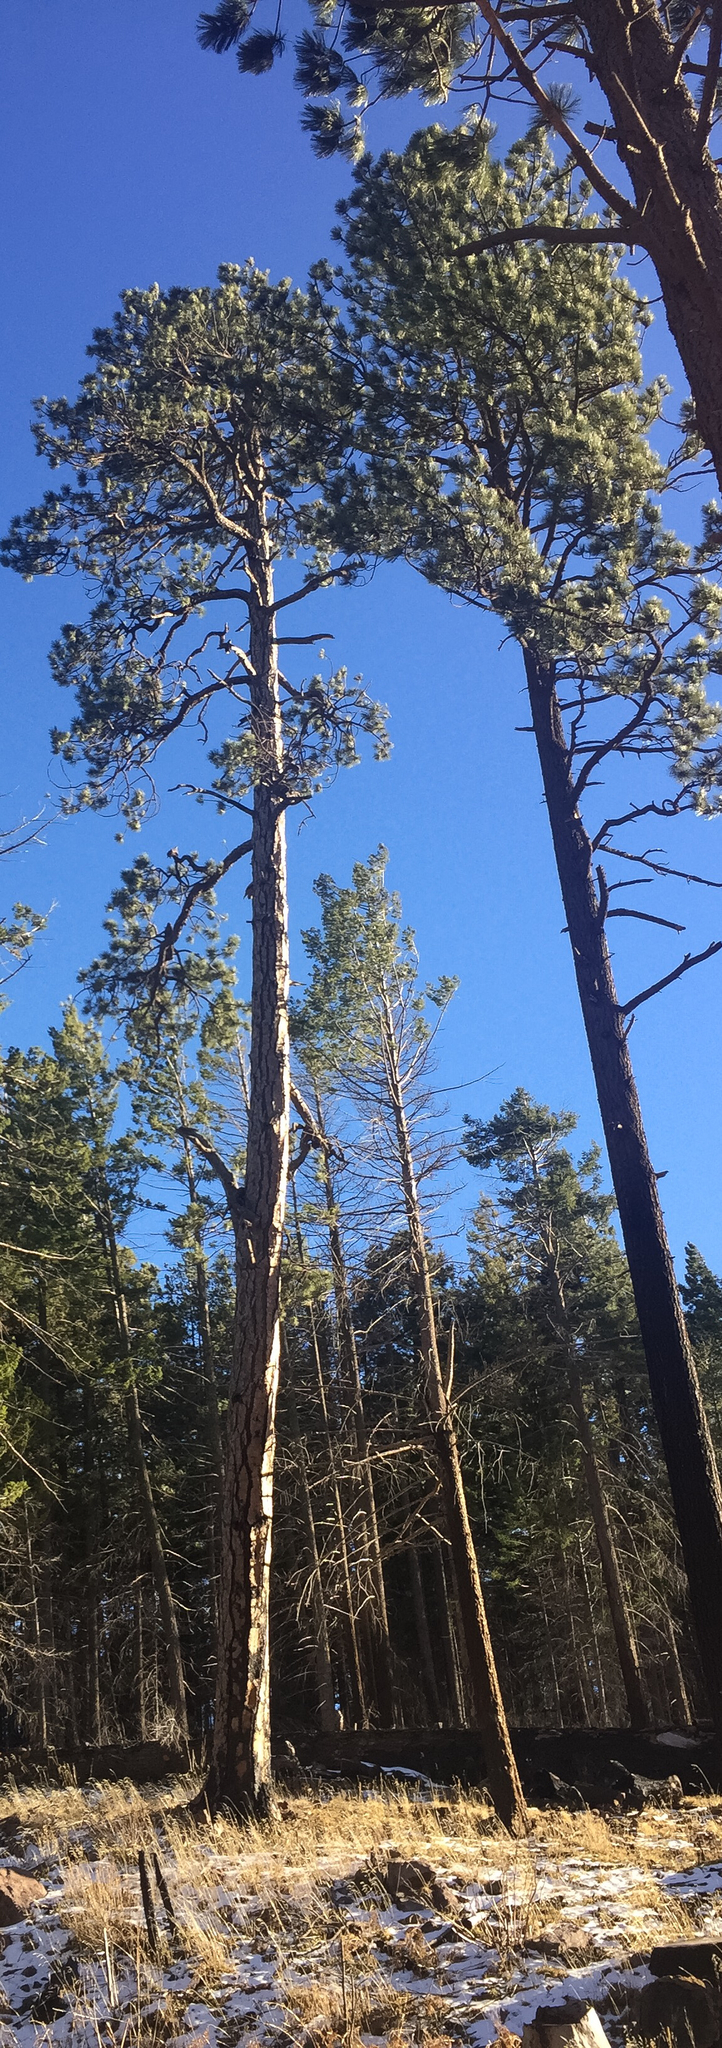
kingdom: Plantae
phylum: Tracheophyta
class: Pinopsida
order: Pinales
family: Pinaceae
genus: Pinus
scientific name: Pinus ponderosa
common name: Western yellow-pine
